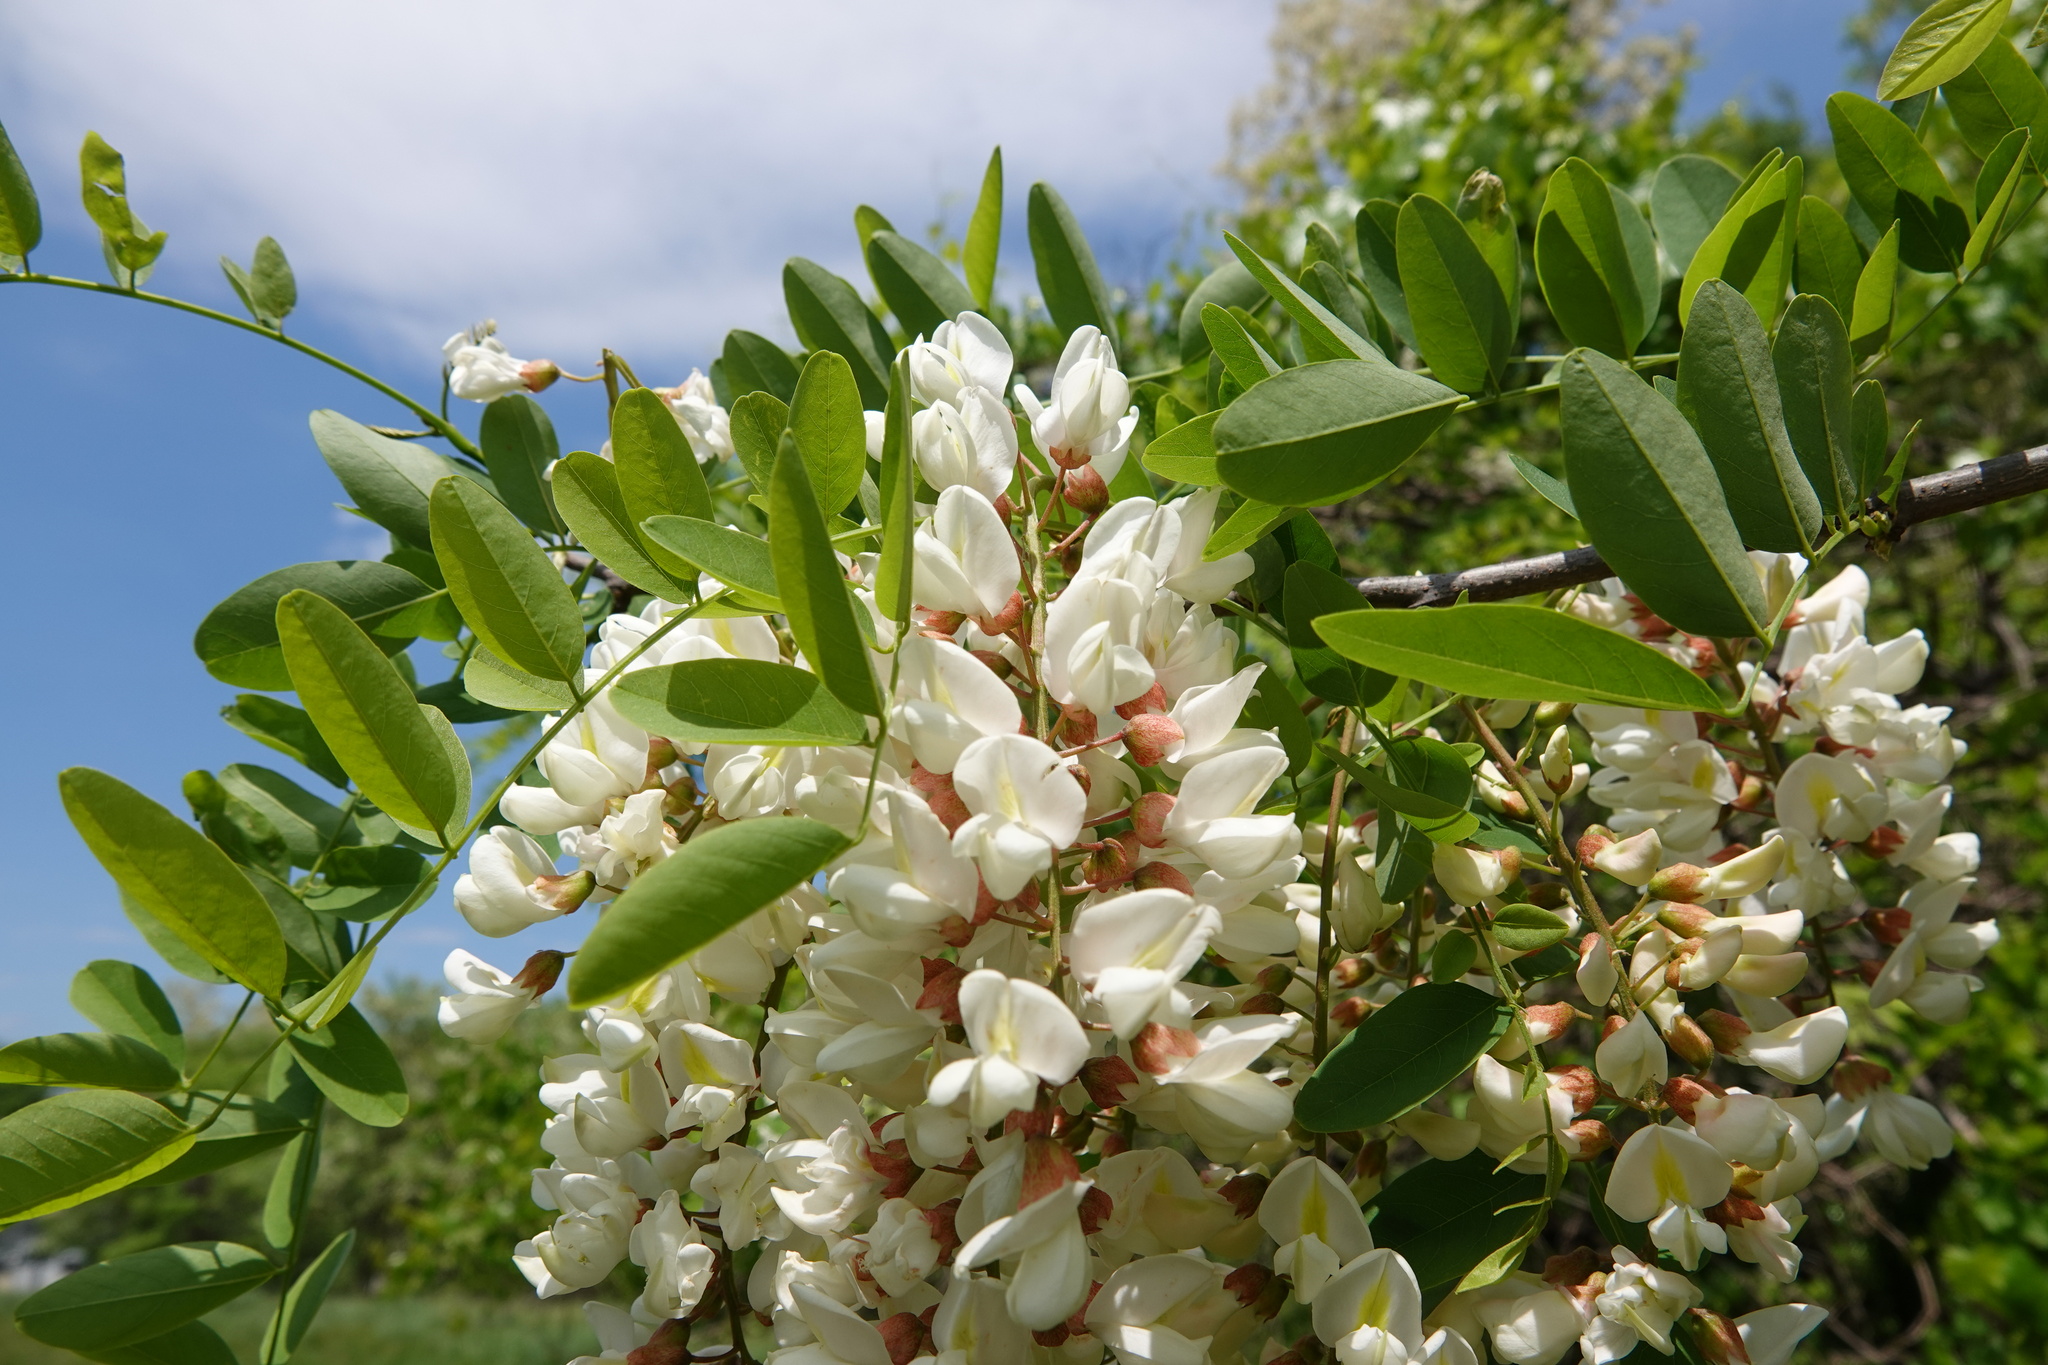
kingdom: Plantae
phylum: Tracheophyta
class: Magnoliopsida
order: Fabales
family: Fabaceae
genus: Robinia
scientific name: Robinia pseudoacacia
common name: Black locust
